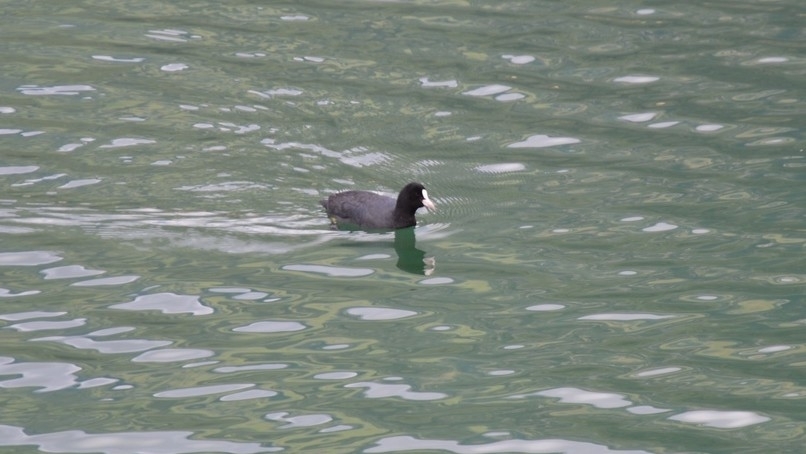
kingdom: Animalia
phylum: Chordata
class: Aves
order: Gruiformes
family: Rallidae
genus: Fulica
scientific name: Fulica atra
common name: Eurasian coot
